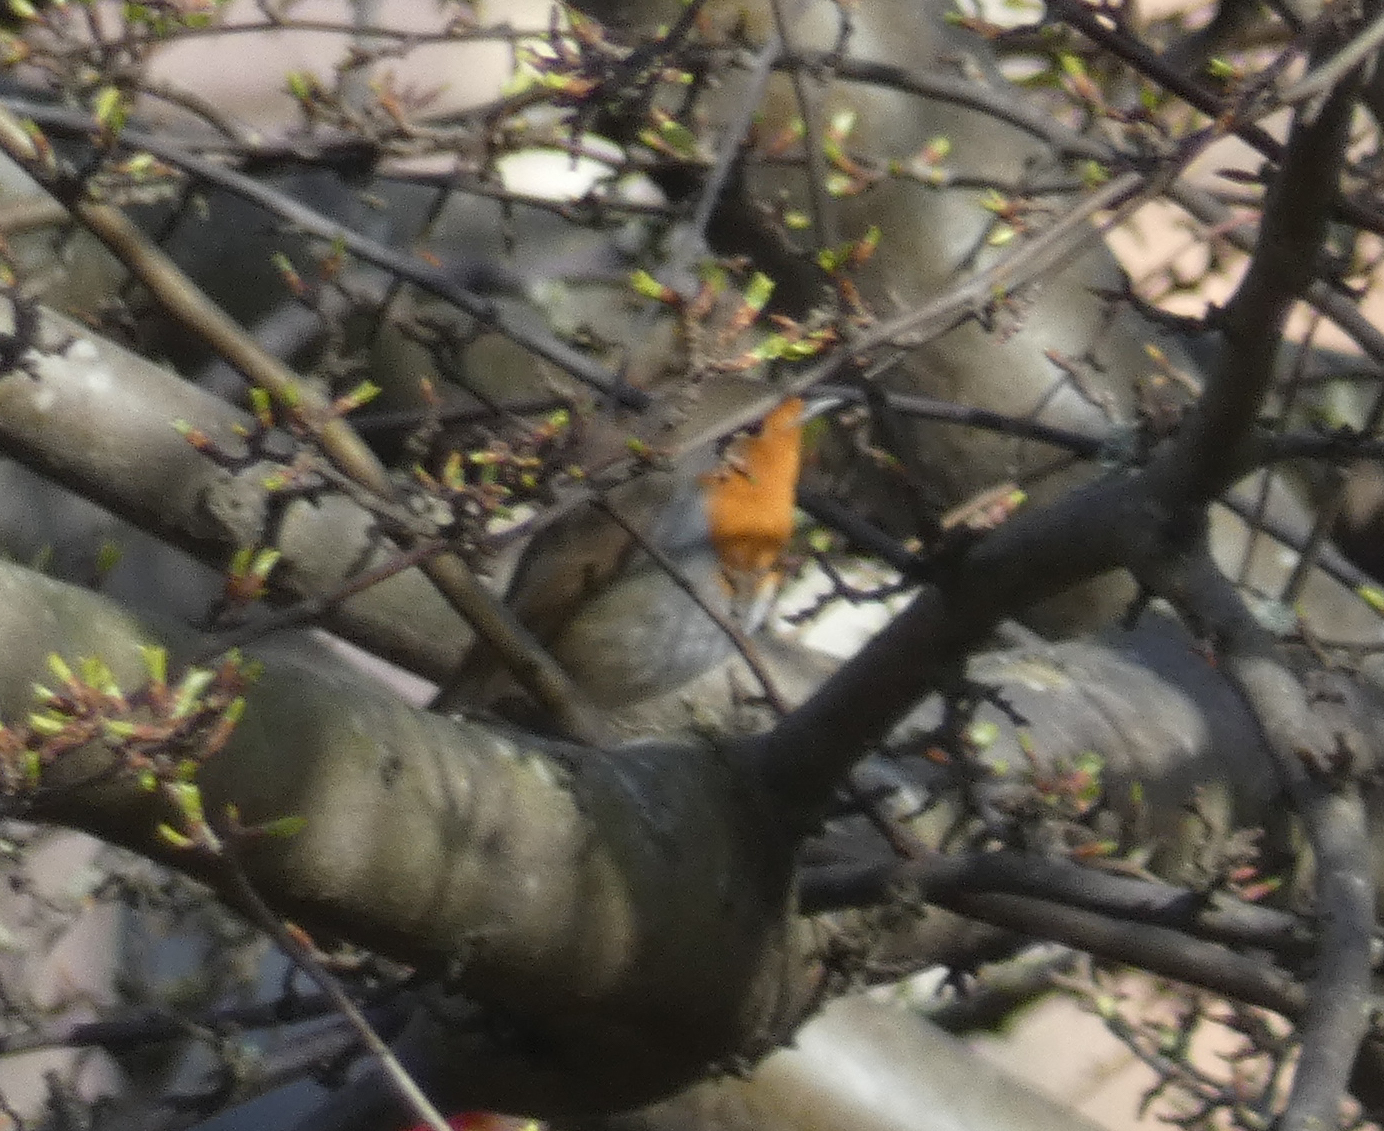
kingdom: Animalia
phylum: Chordata
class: Aves
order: Passeriformes
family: Muscicapidae
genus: Erithacus
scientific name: Erithacus rubecula
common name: European robin
